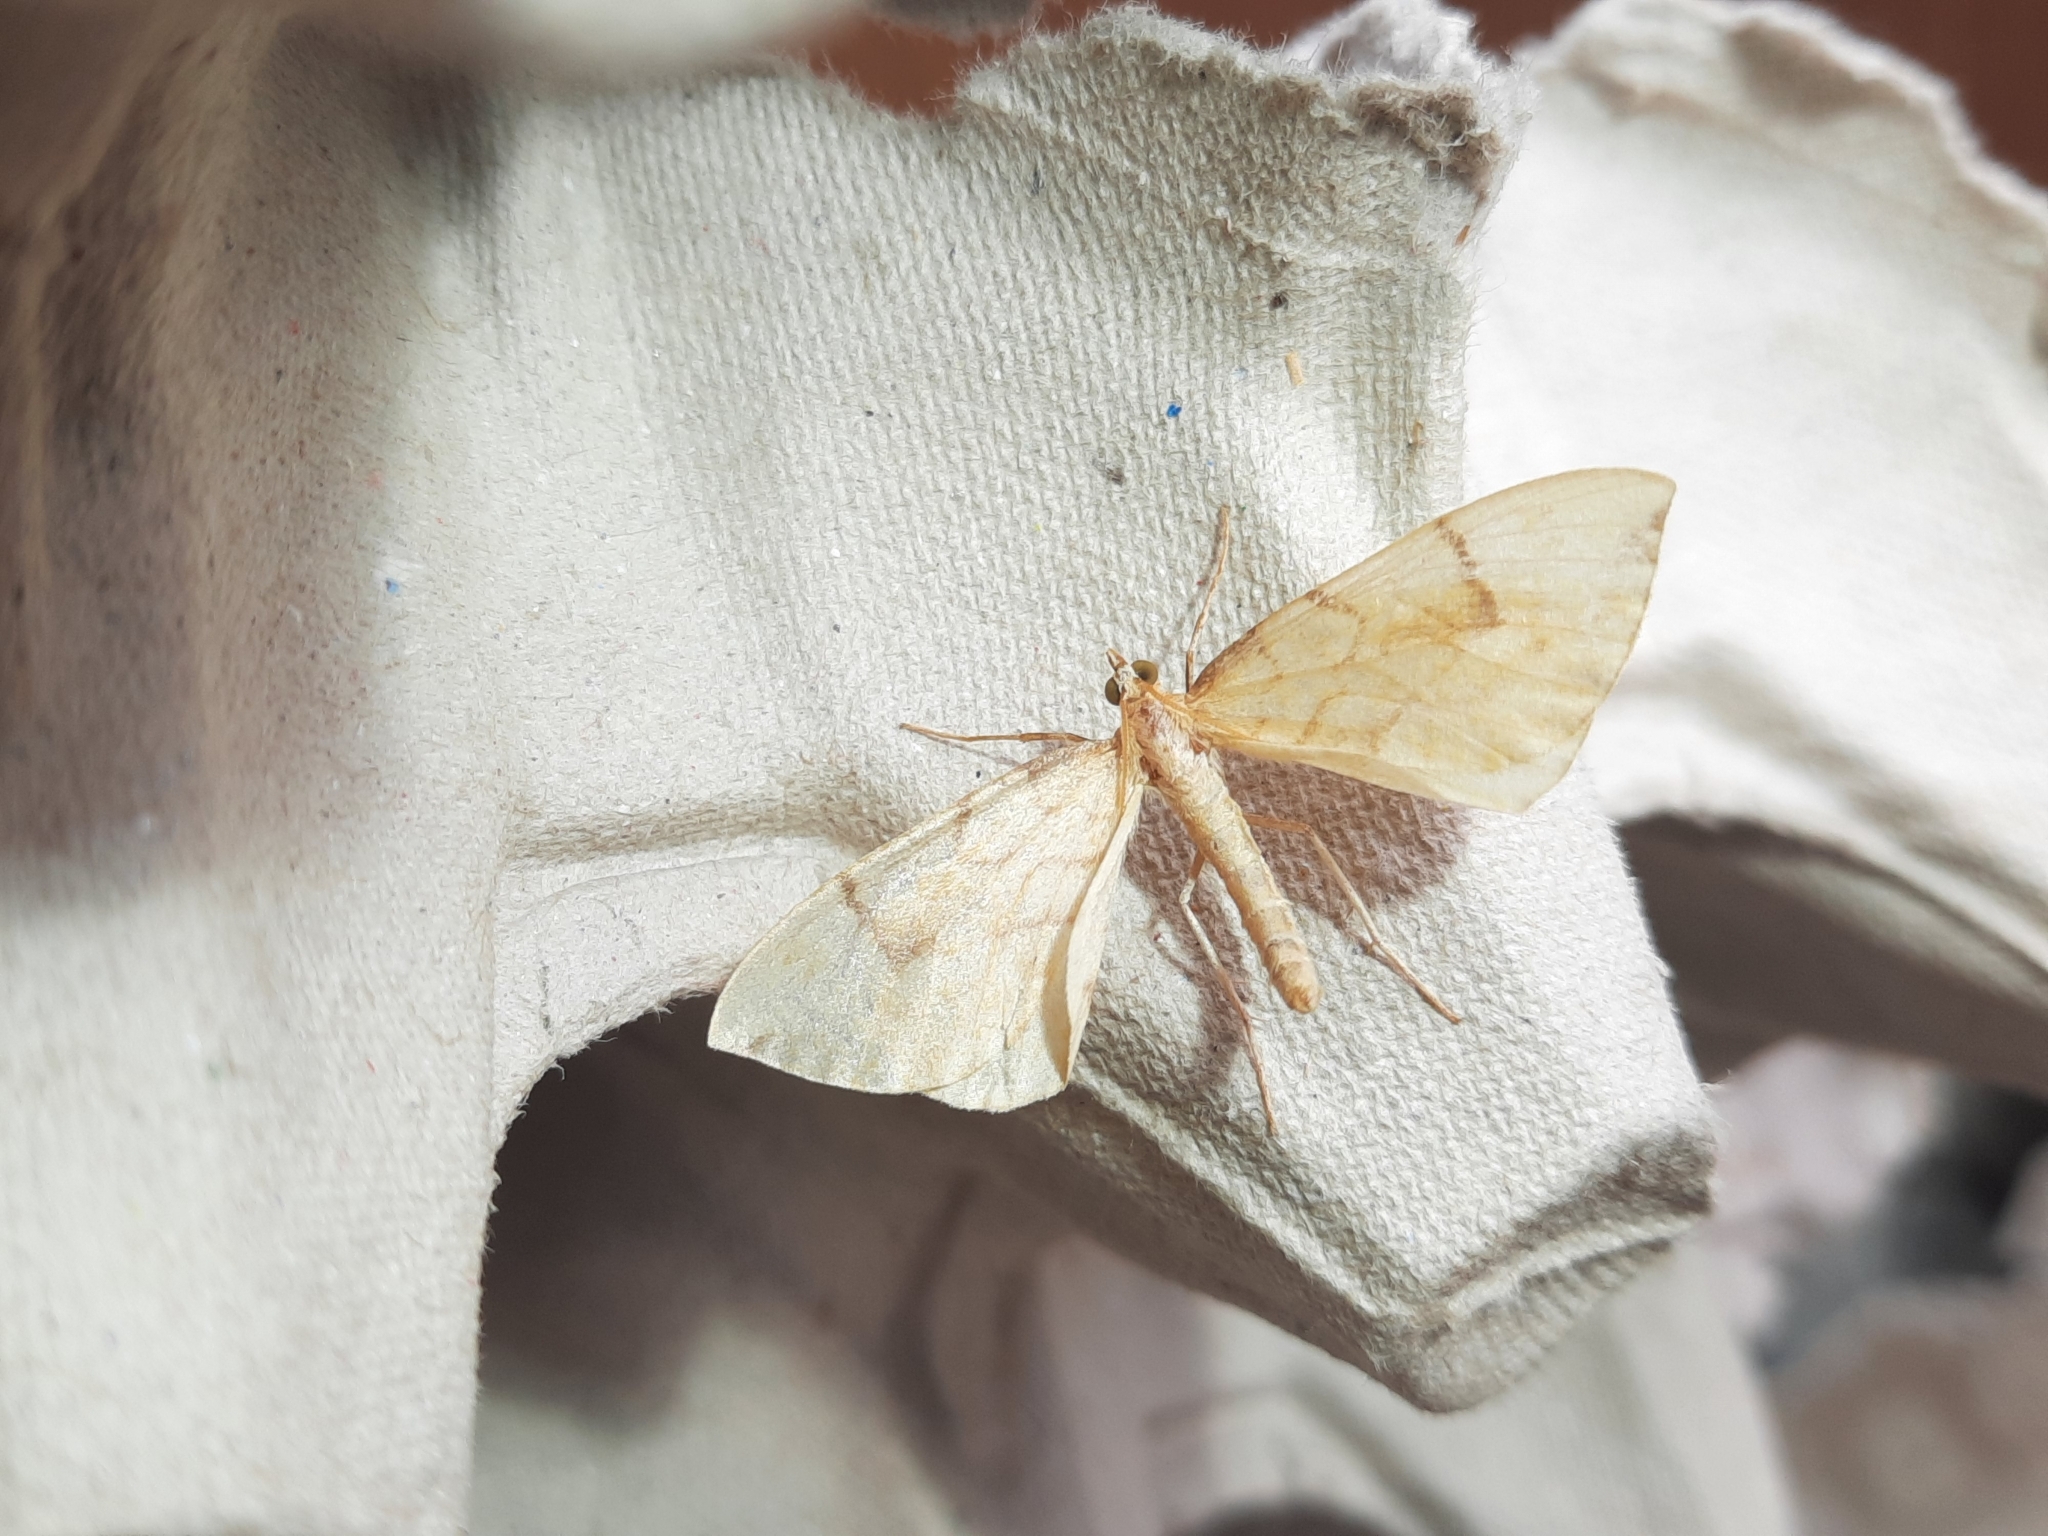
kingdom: Animalia
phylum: Arthropoda
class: Insecta
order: Lepidoptera
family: Geometridae
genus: Eulithis
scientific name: Eulithis pyraliata
